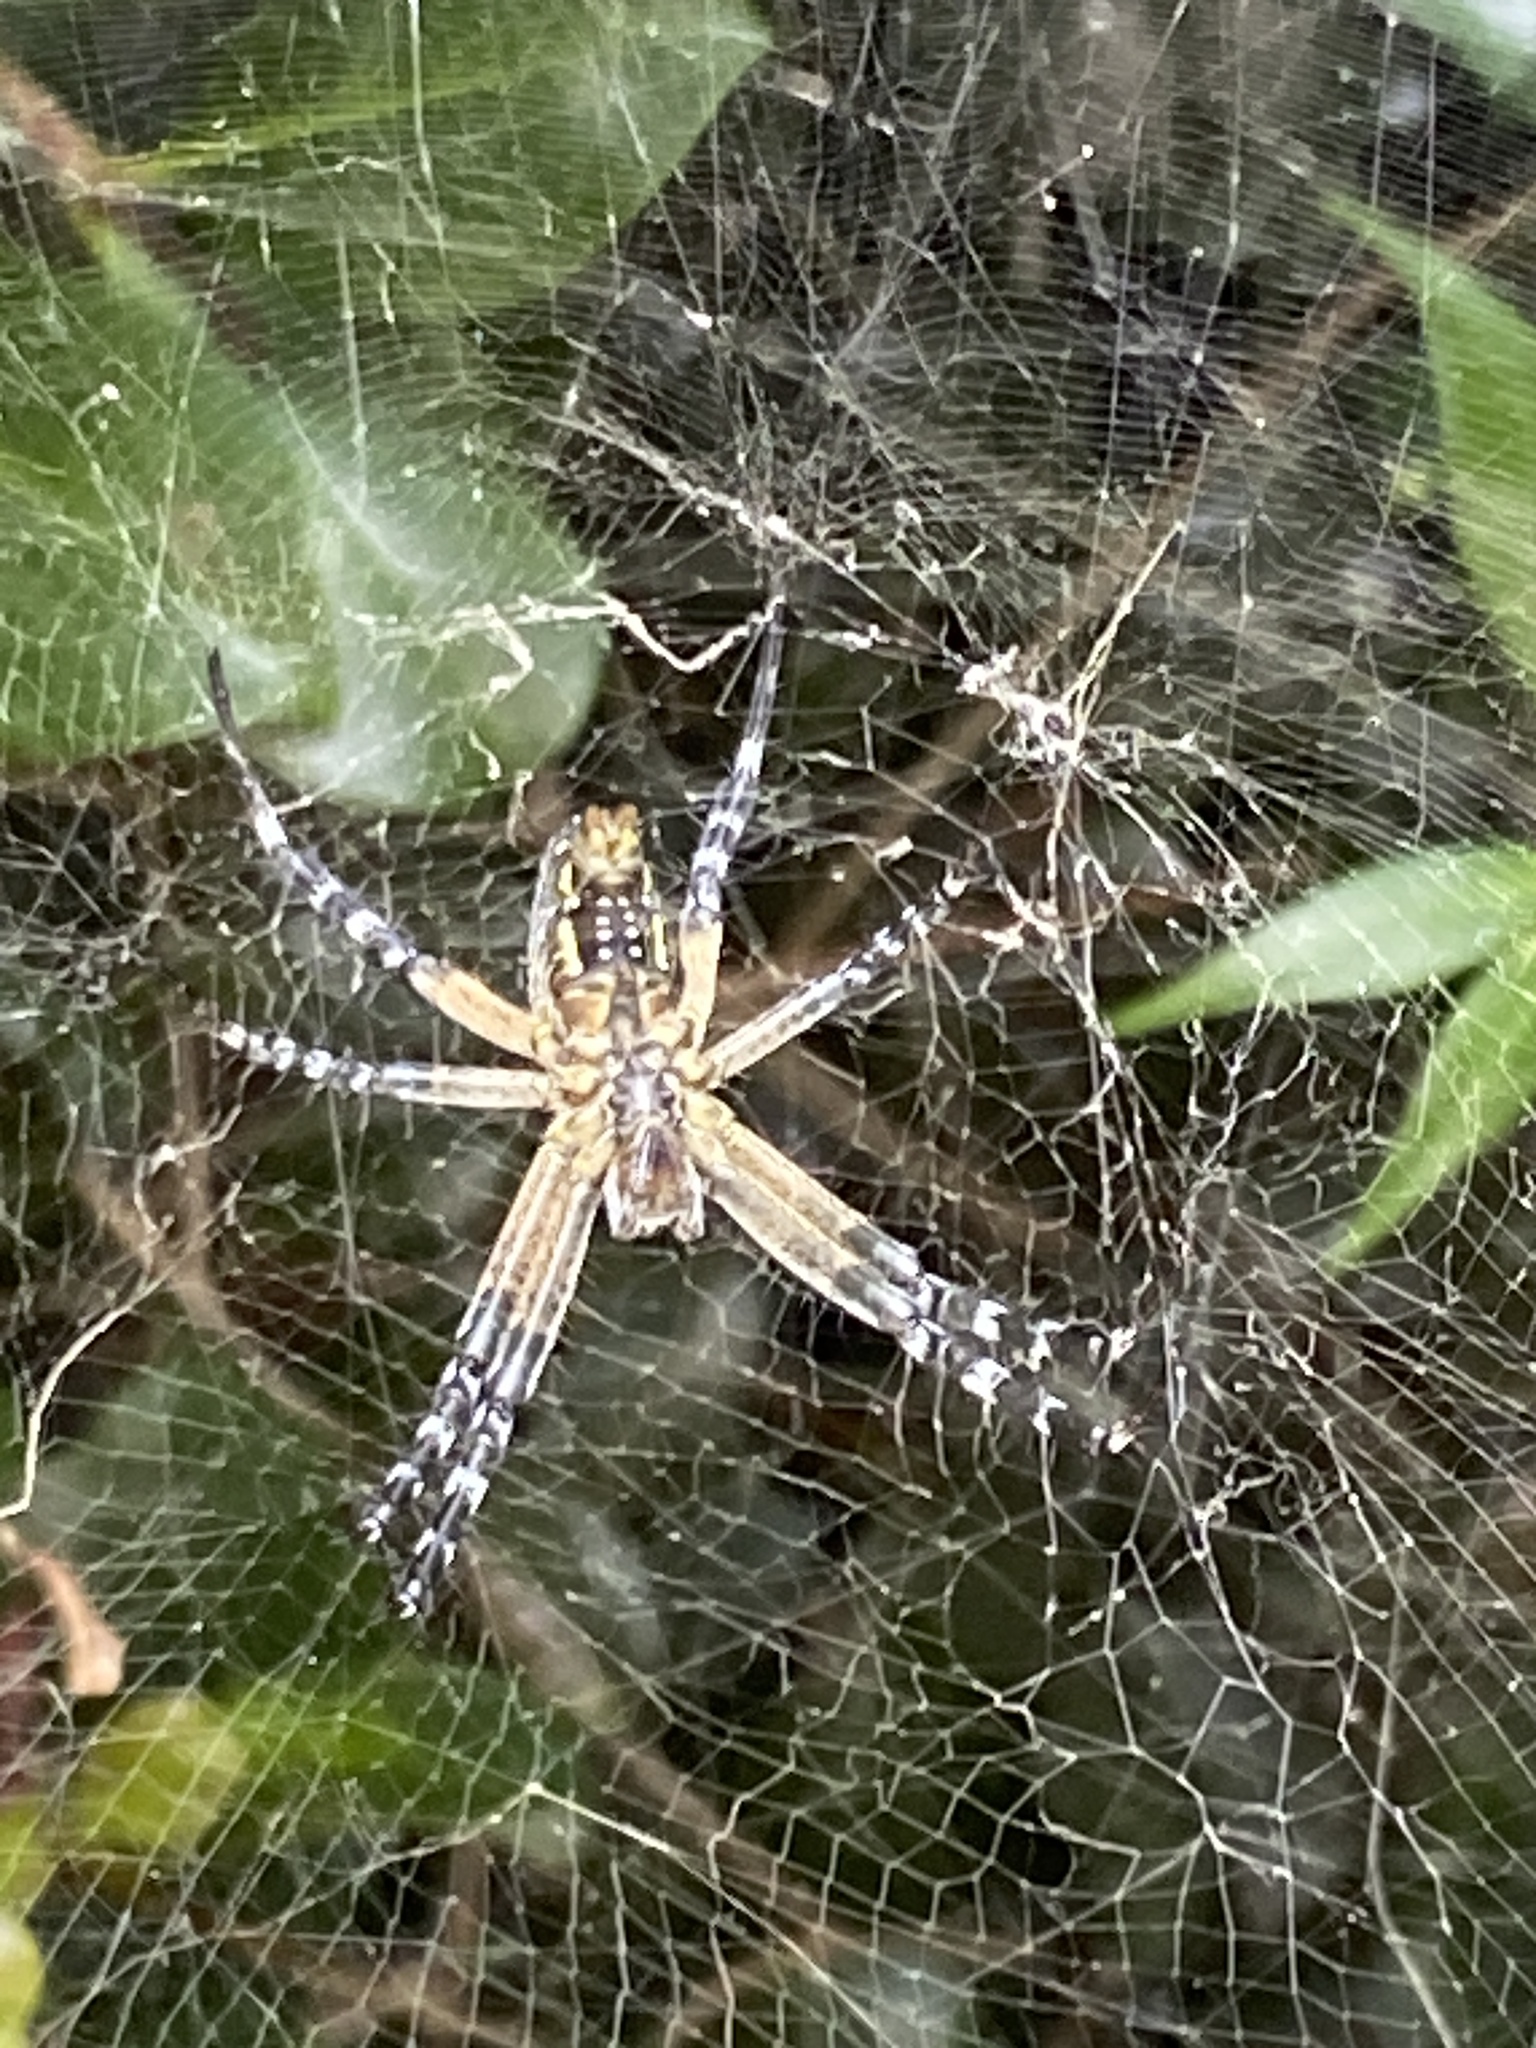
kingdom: Chromista
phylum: Ochrophyta
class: Dictyochophyceae
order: Pedinellales
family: Cyrtophoraceae
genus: Cyrtophora
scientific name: Cyrtophora moluccensis
